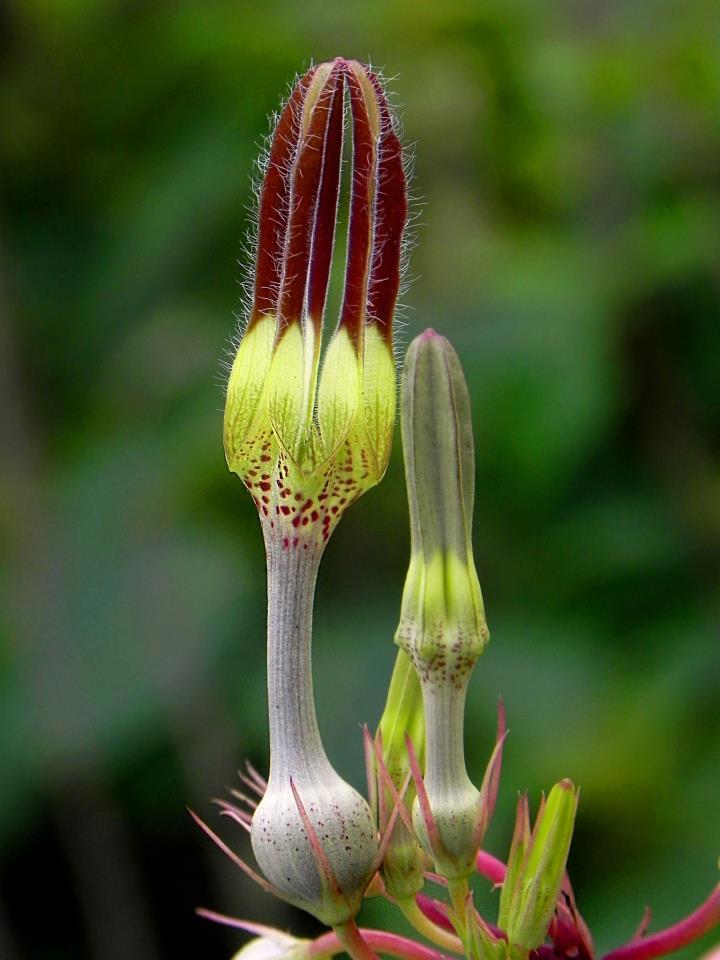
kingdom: Plantae
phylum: Tracheophyta
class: Magnoliopsida
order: Gentianales
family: Apocynaceae
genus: Ceropegia
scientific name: Ceropegia vincifolia
